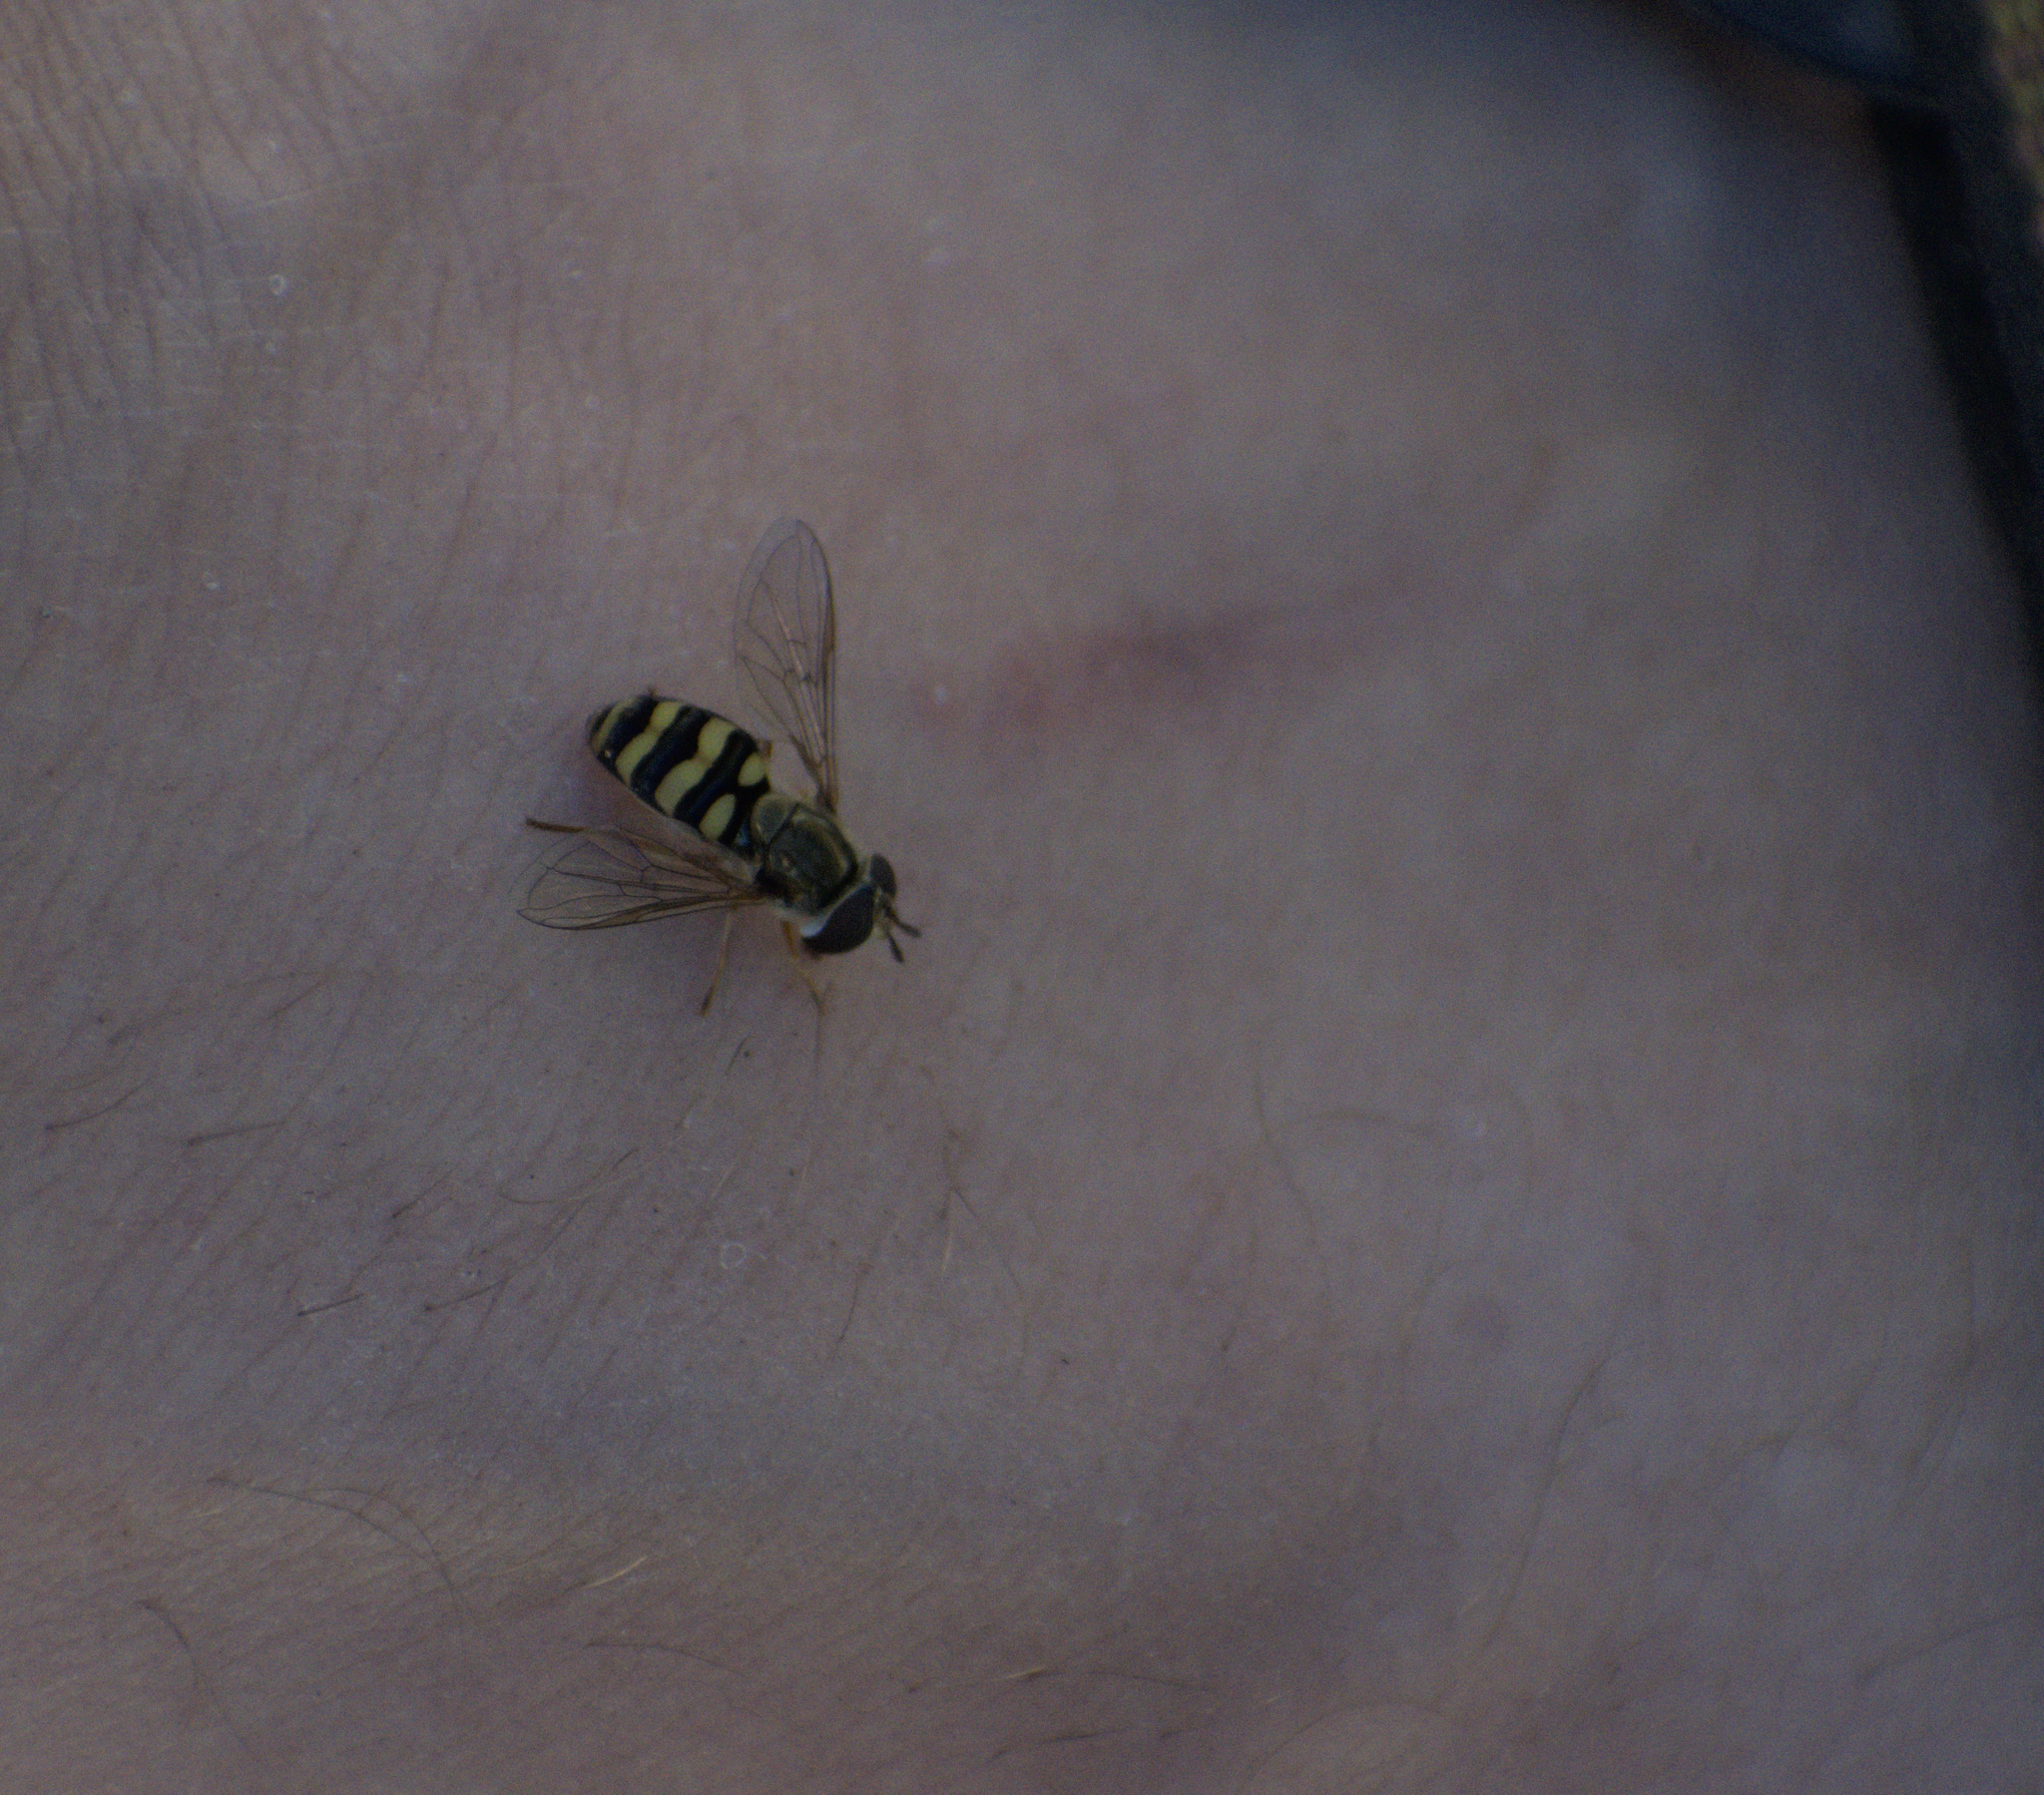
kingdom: Animalia
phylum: Arthropoda
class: Insecta
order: Diptera
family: Syrphidae
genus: Eupeodes
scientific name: Eupeodes fumipennis
